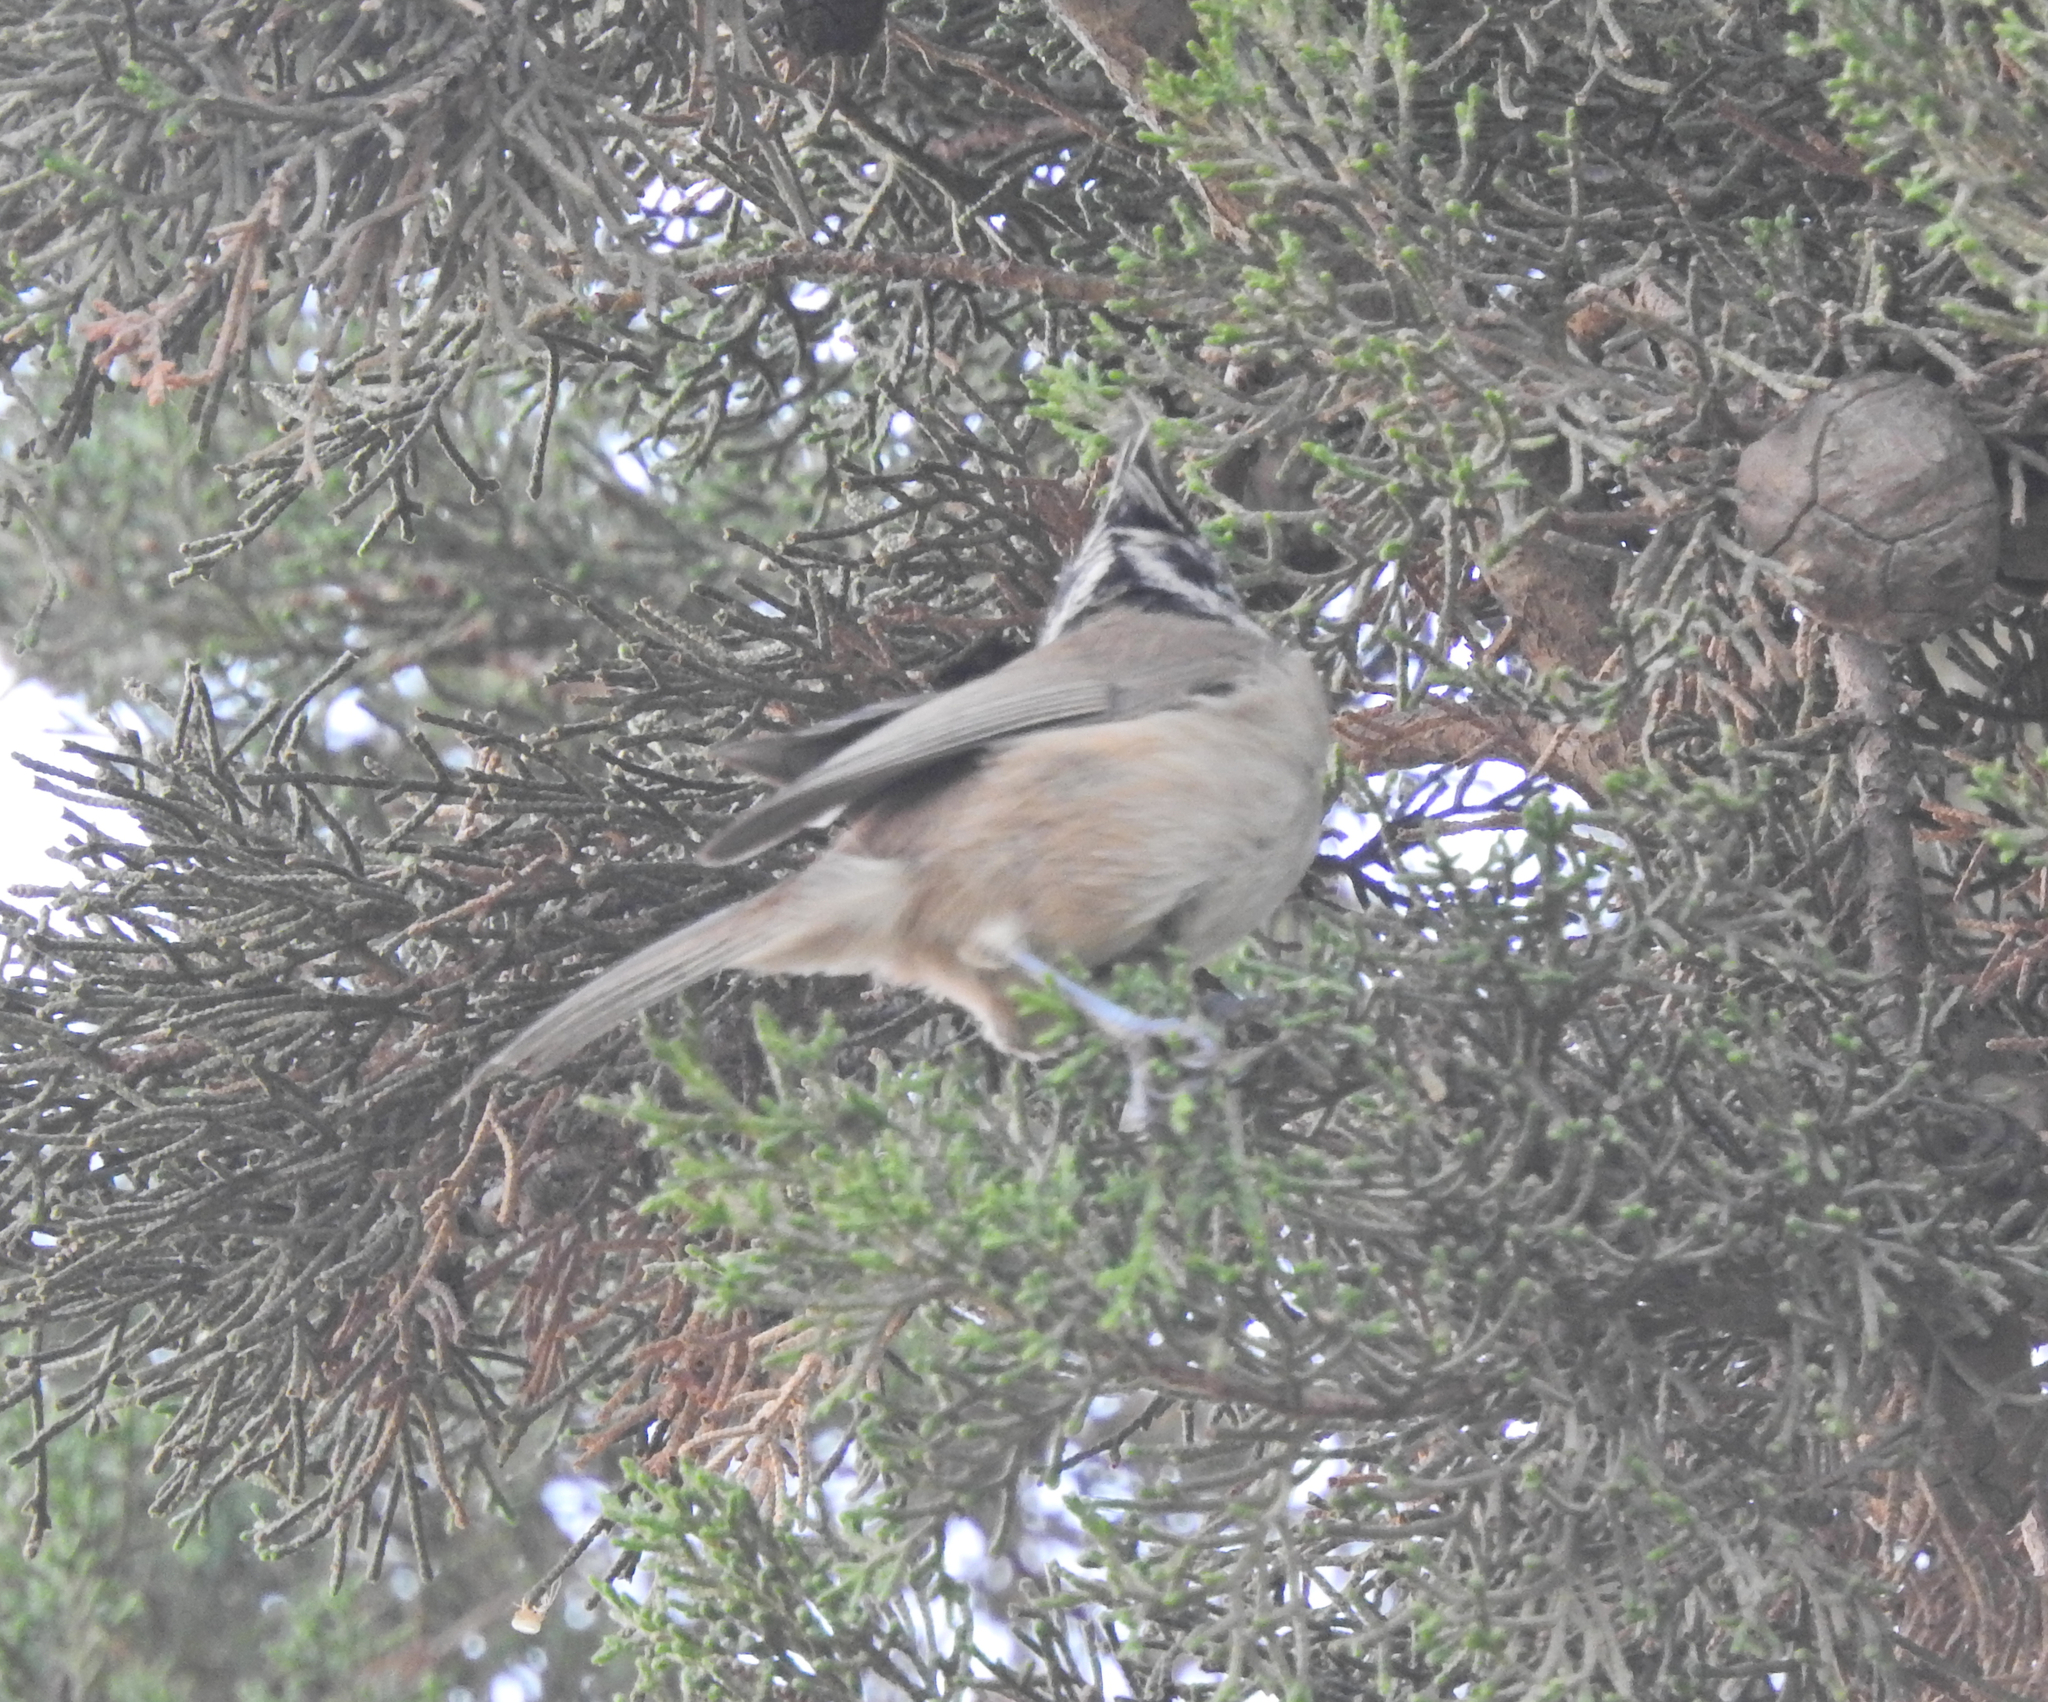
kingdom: Animalia
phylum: Chordata
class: Aves
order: Passeriformes
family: Paridae
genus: Lophophanes
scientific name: Lophophanes cristatus
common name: European crested tit
